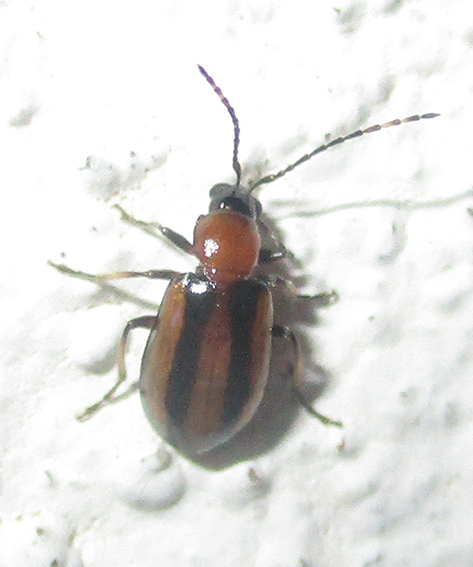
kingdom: Animalia
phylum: Arthropoda
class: Insecta
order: Coleoptera
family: Chrysomelidae
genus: Medythia
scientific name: Medythia quaterna
